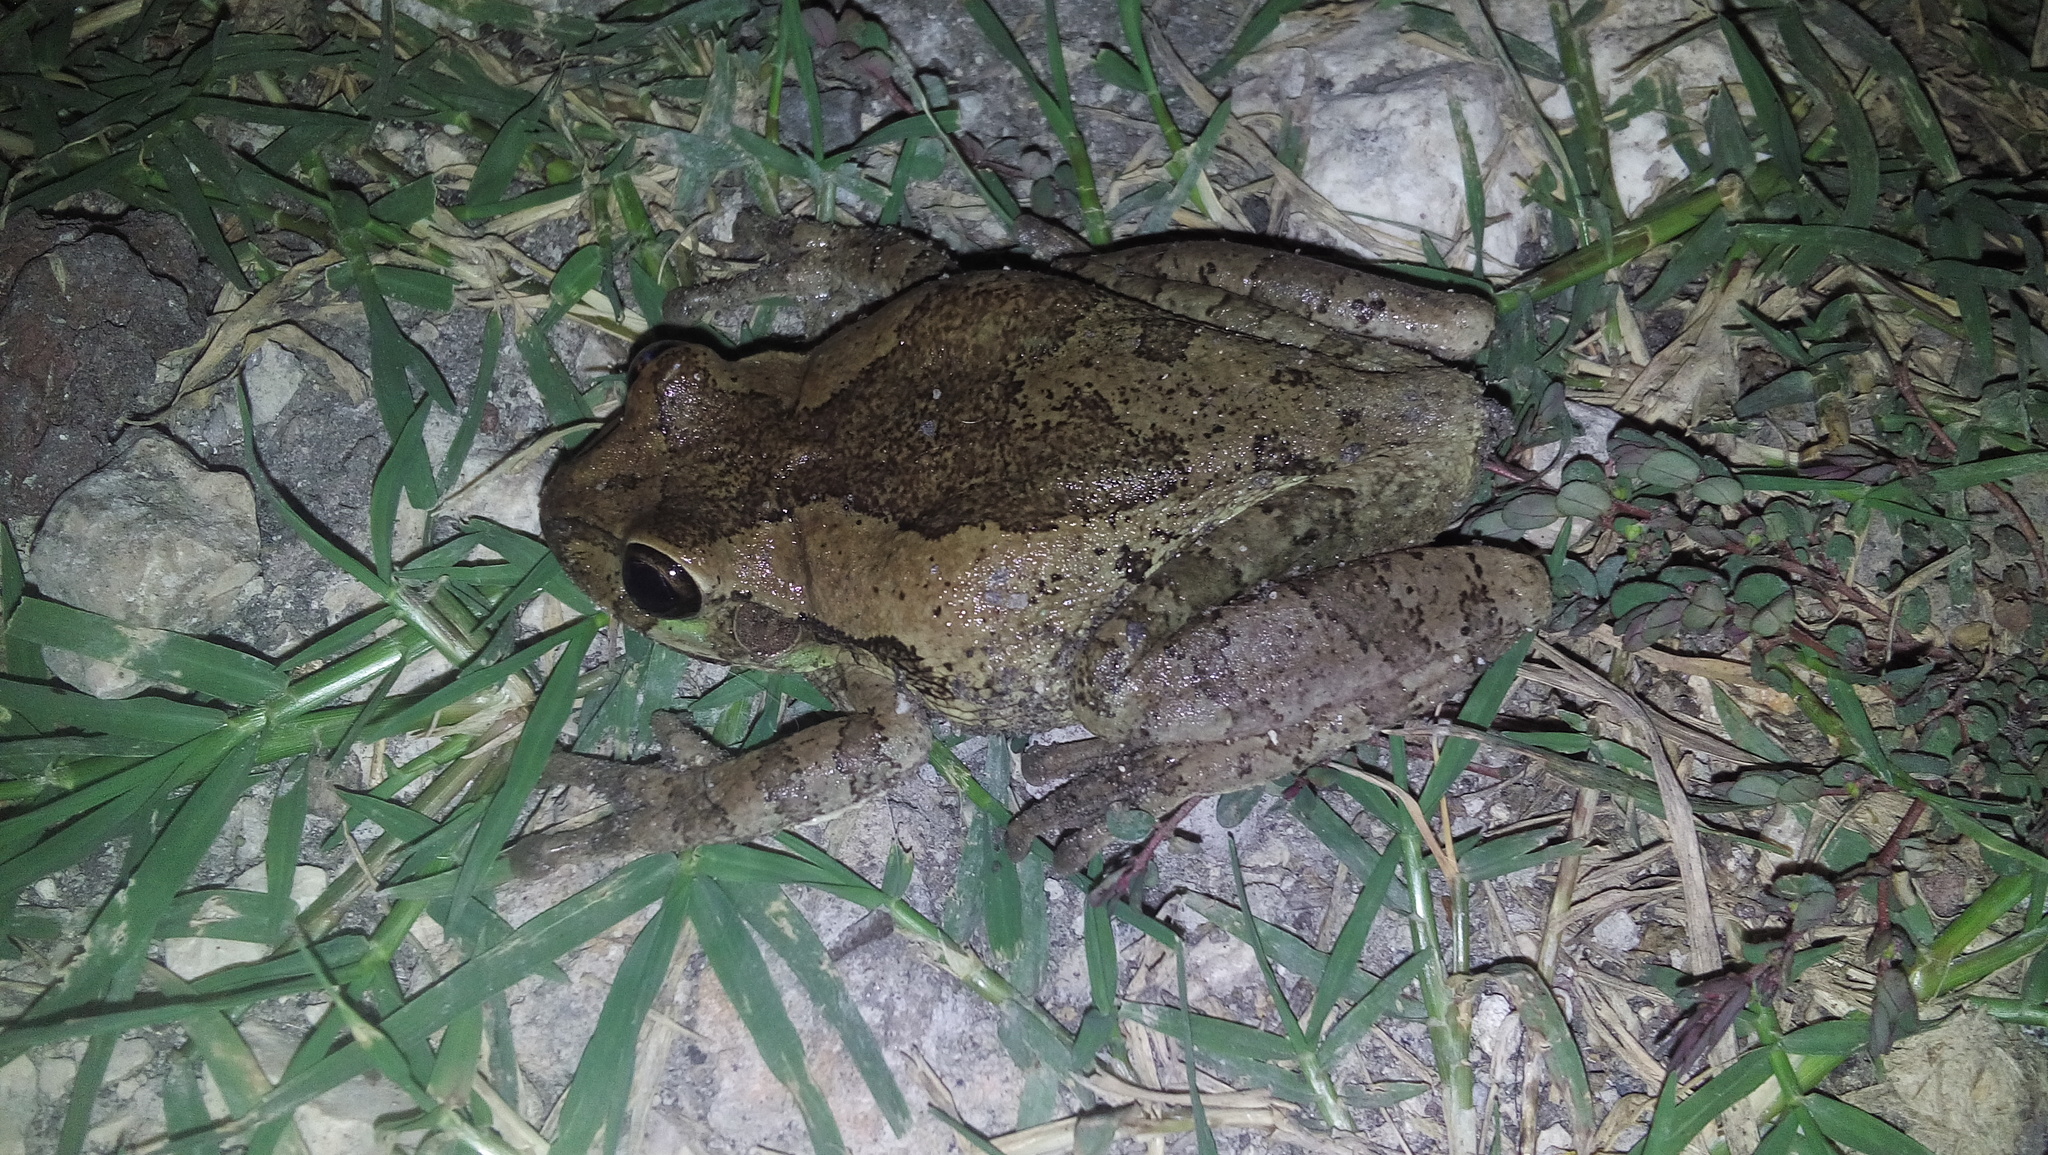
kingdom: Animalia
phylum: Chordata
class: Amphibia
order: Anura
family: Hylidae
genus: Smilisca
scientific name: Smilisca baudinii
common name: Mexican smilisca
